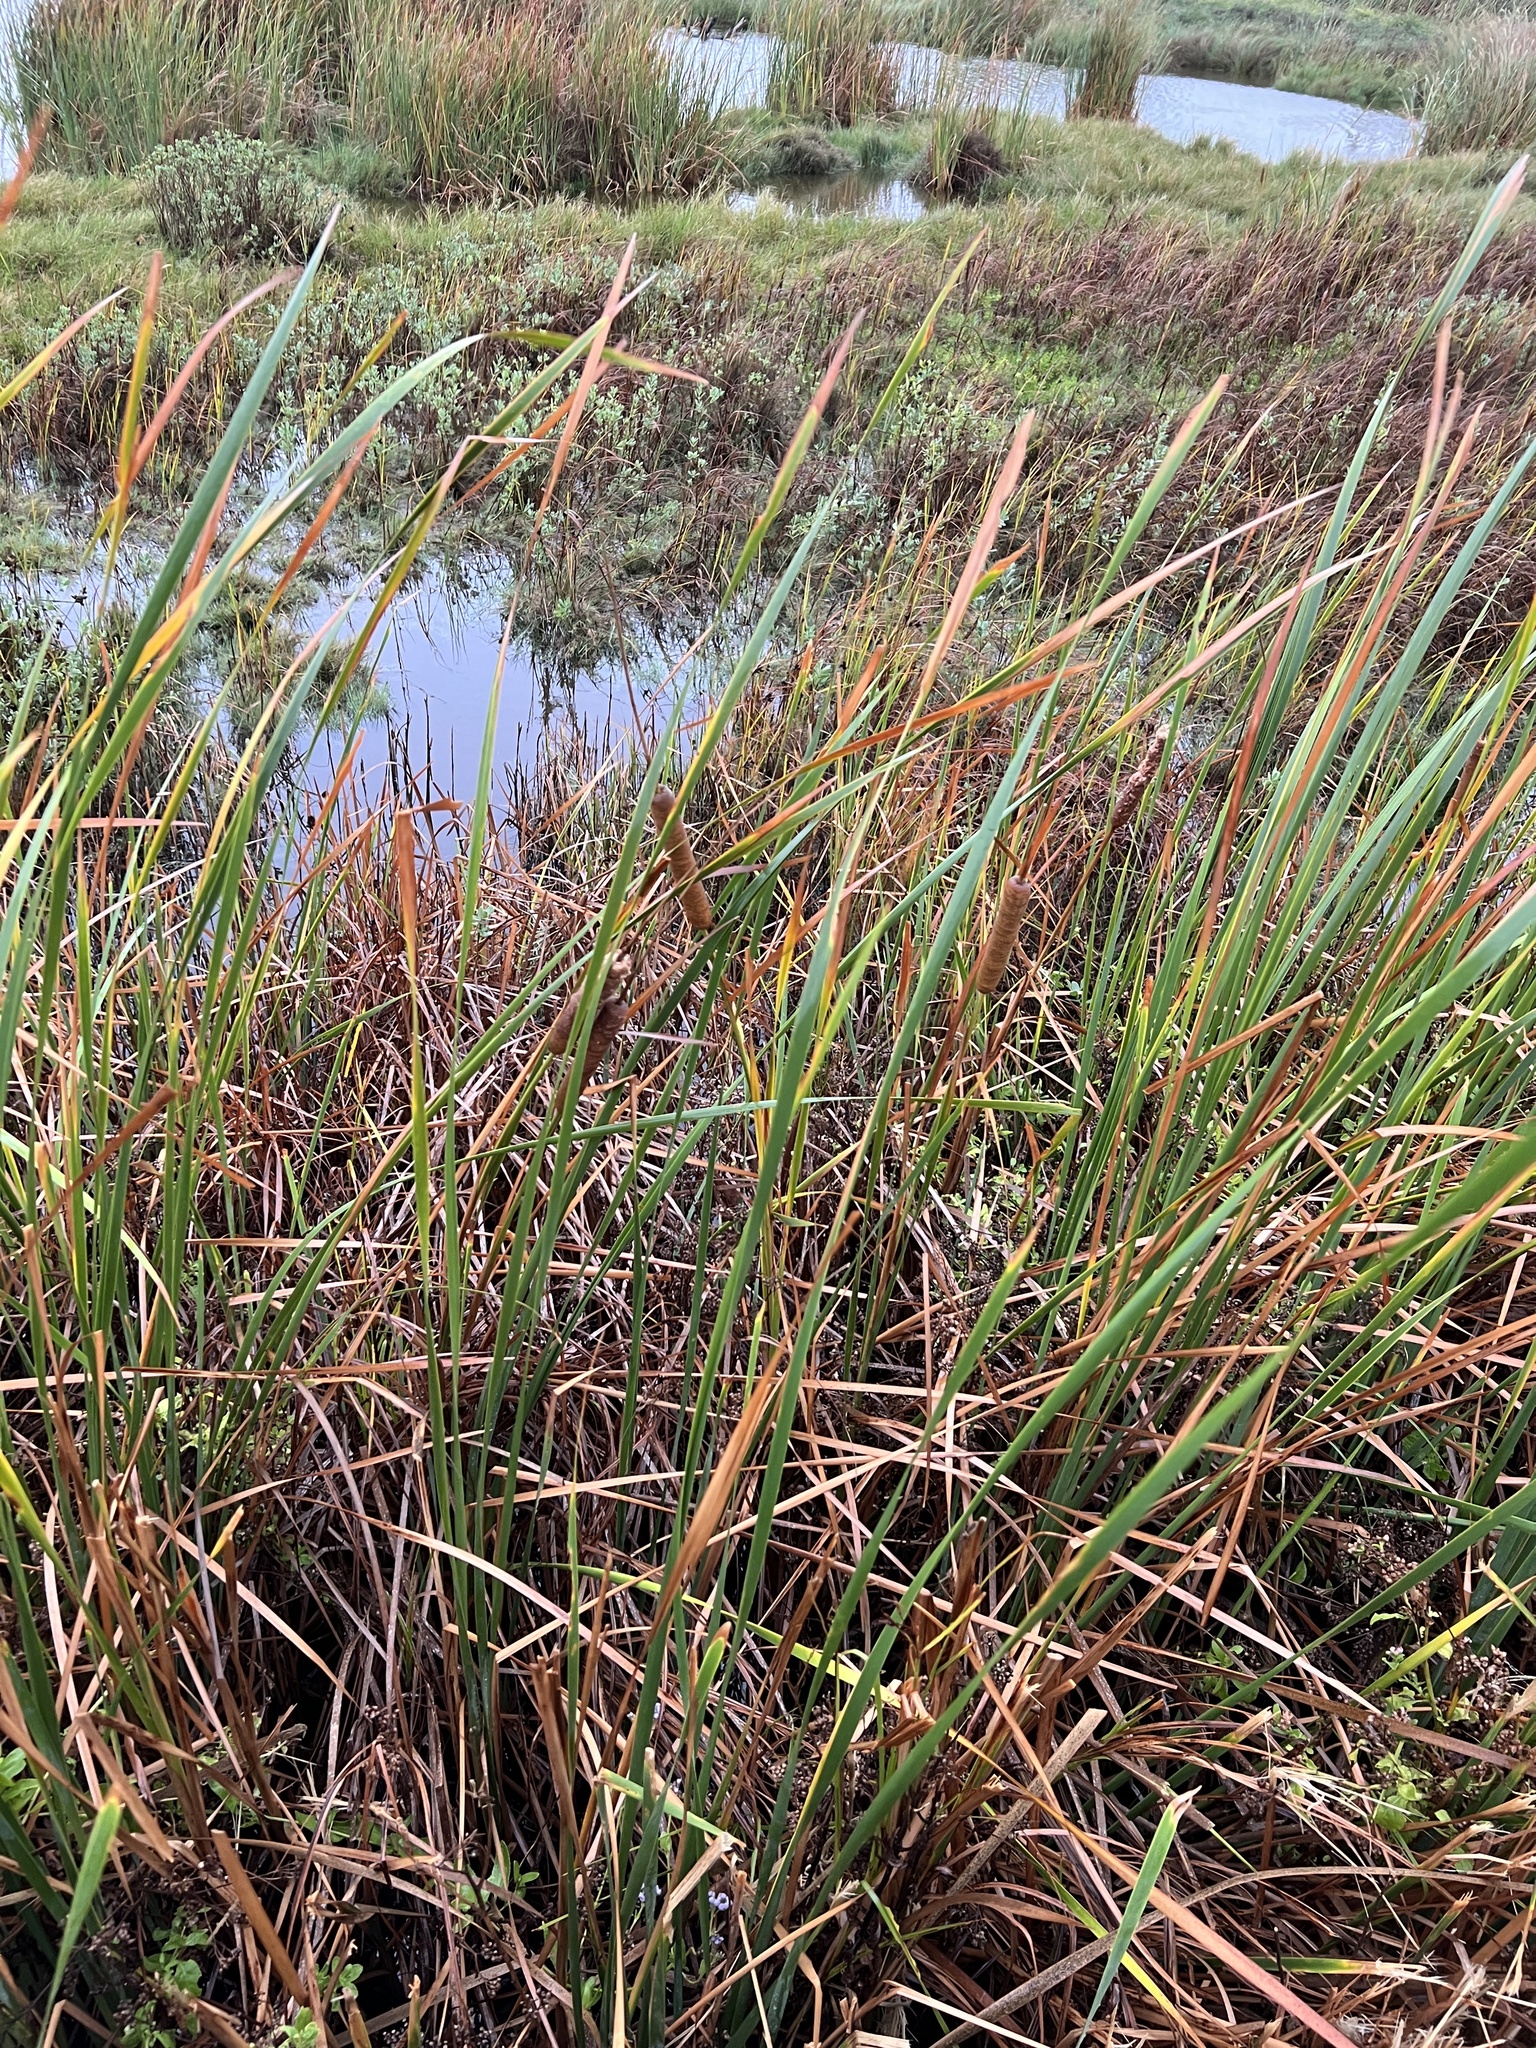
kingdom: Plantae
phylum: Tracheophyta
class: Liliopsida
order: Poales
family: Typhaceae
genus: Typha
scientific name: Typha domingensis
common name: Southern cattail
